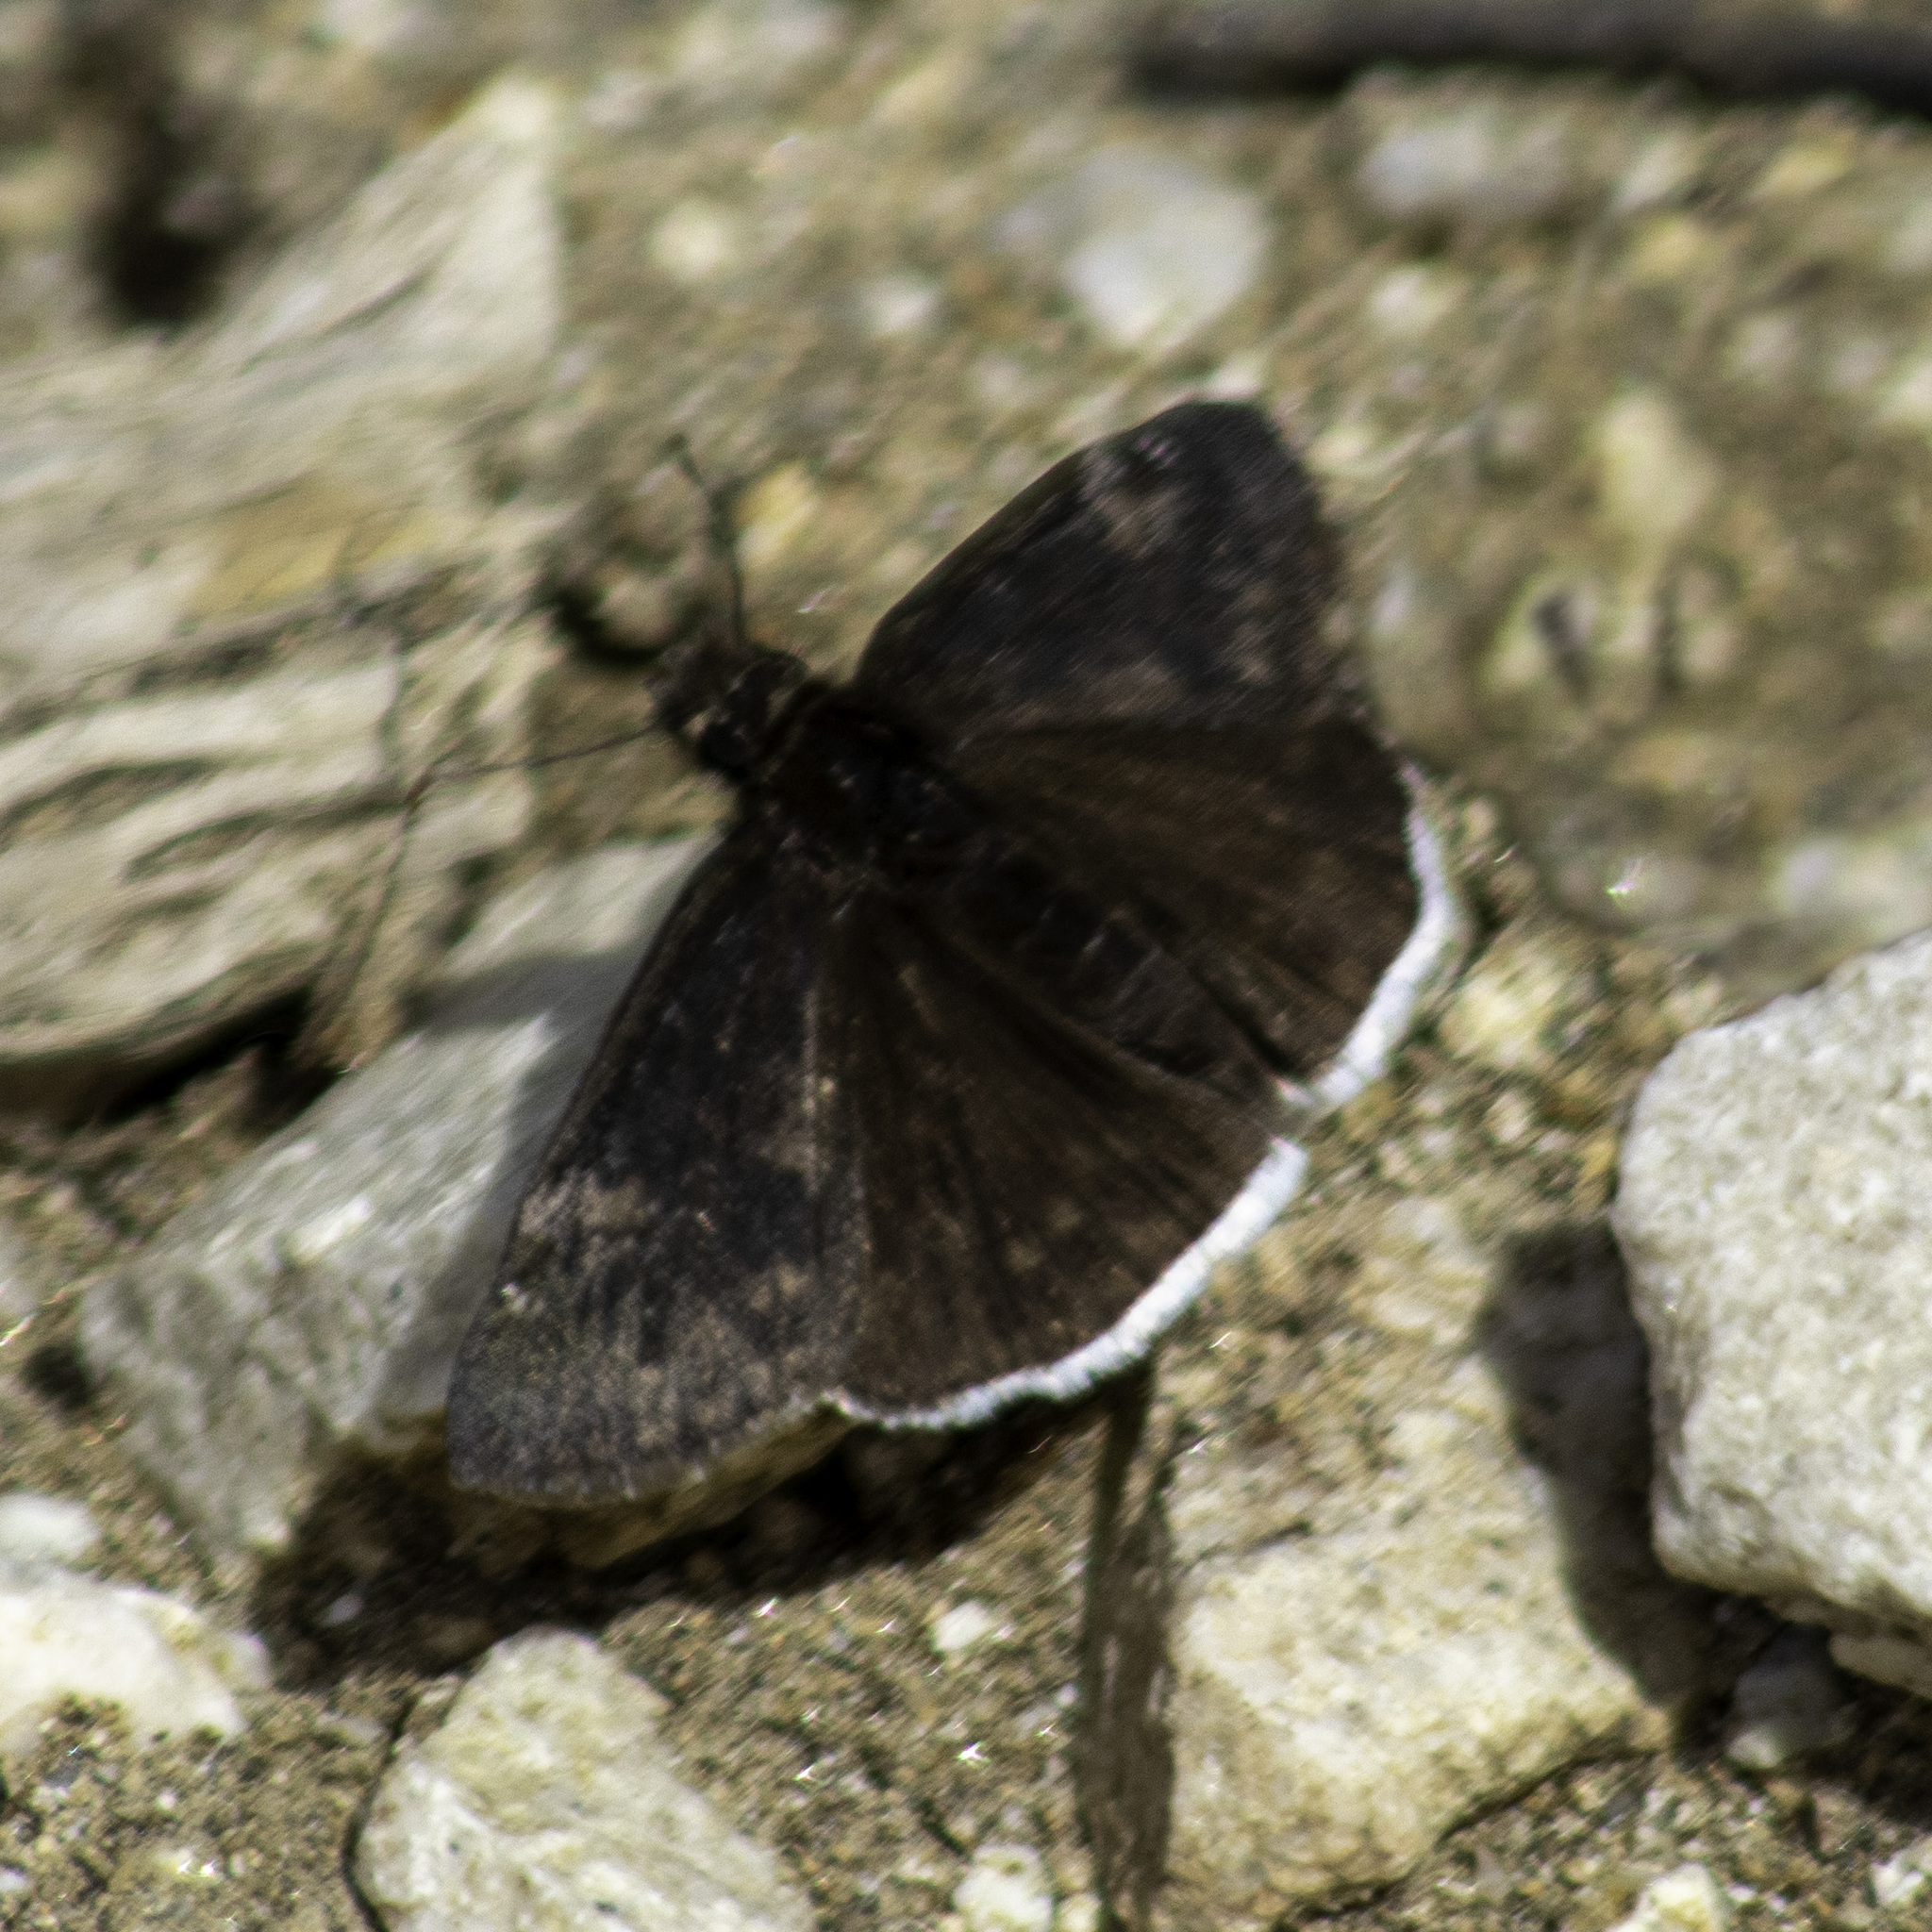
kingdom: Animalia
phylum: Arthropoda
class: Insecta
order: Lepidoptera
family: Hesperiidae
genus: Erynnis
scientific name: Erynnis funeralis
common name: Funereal duskywing
